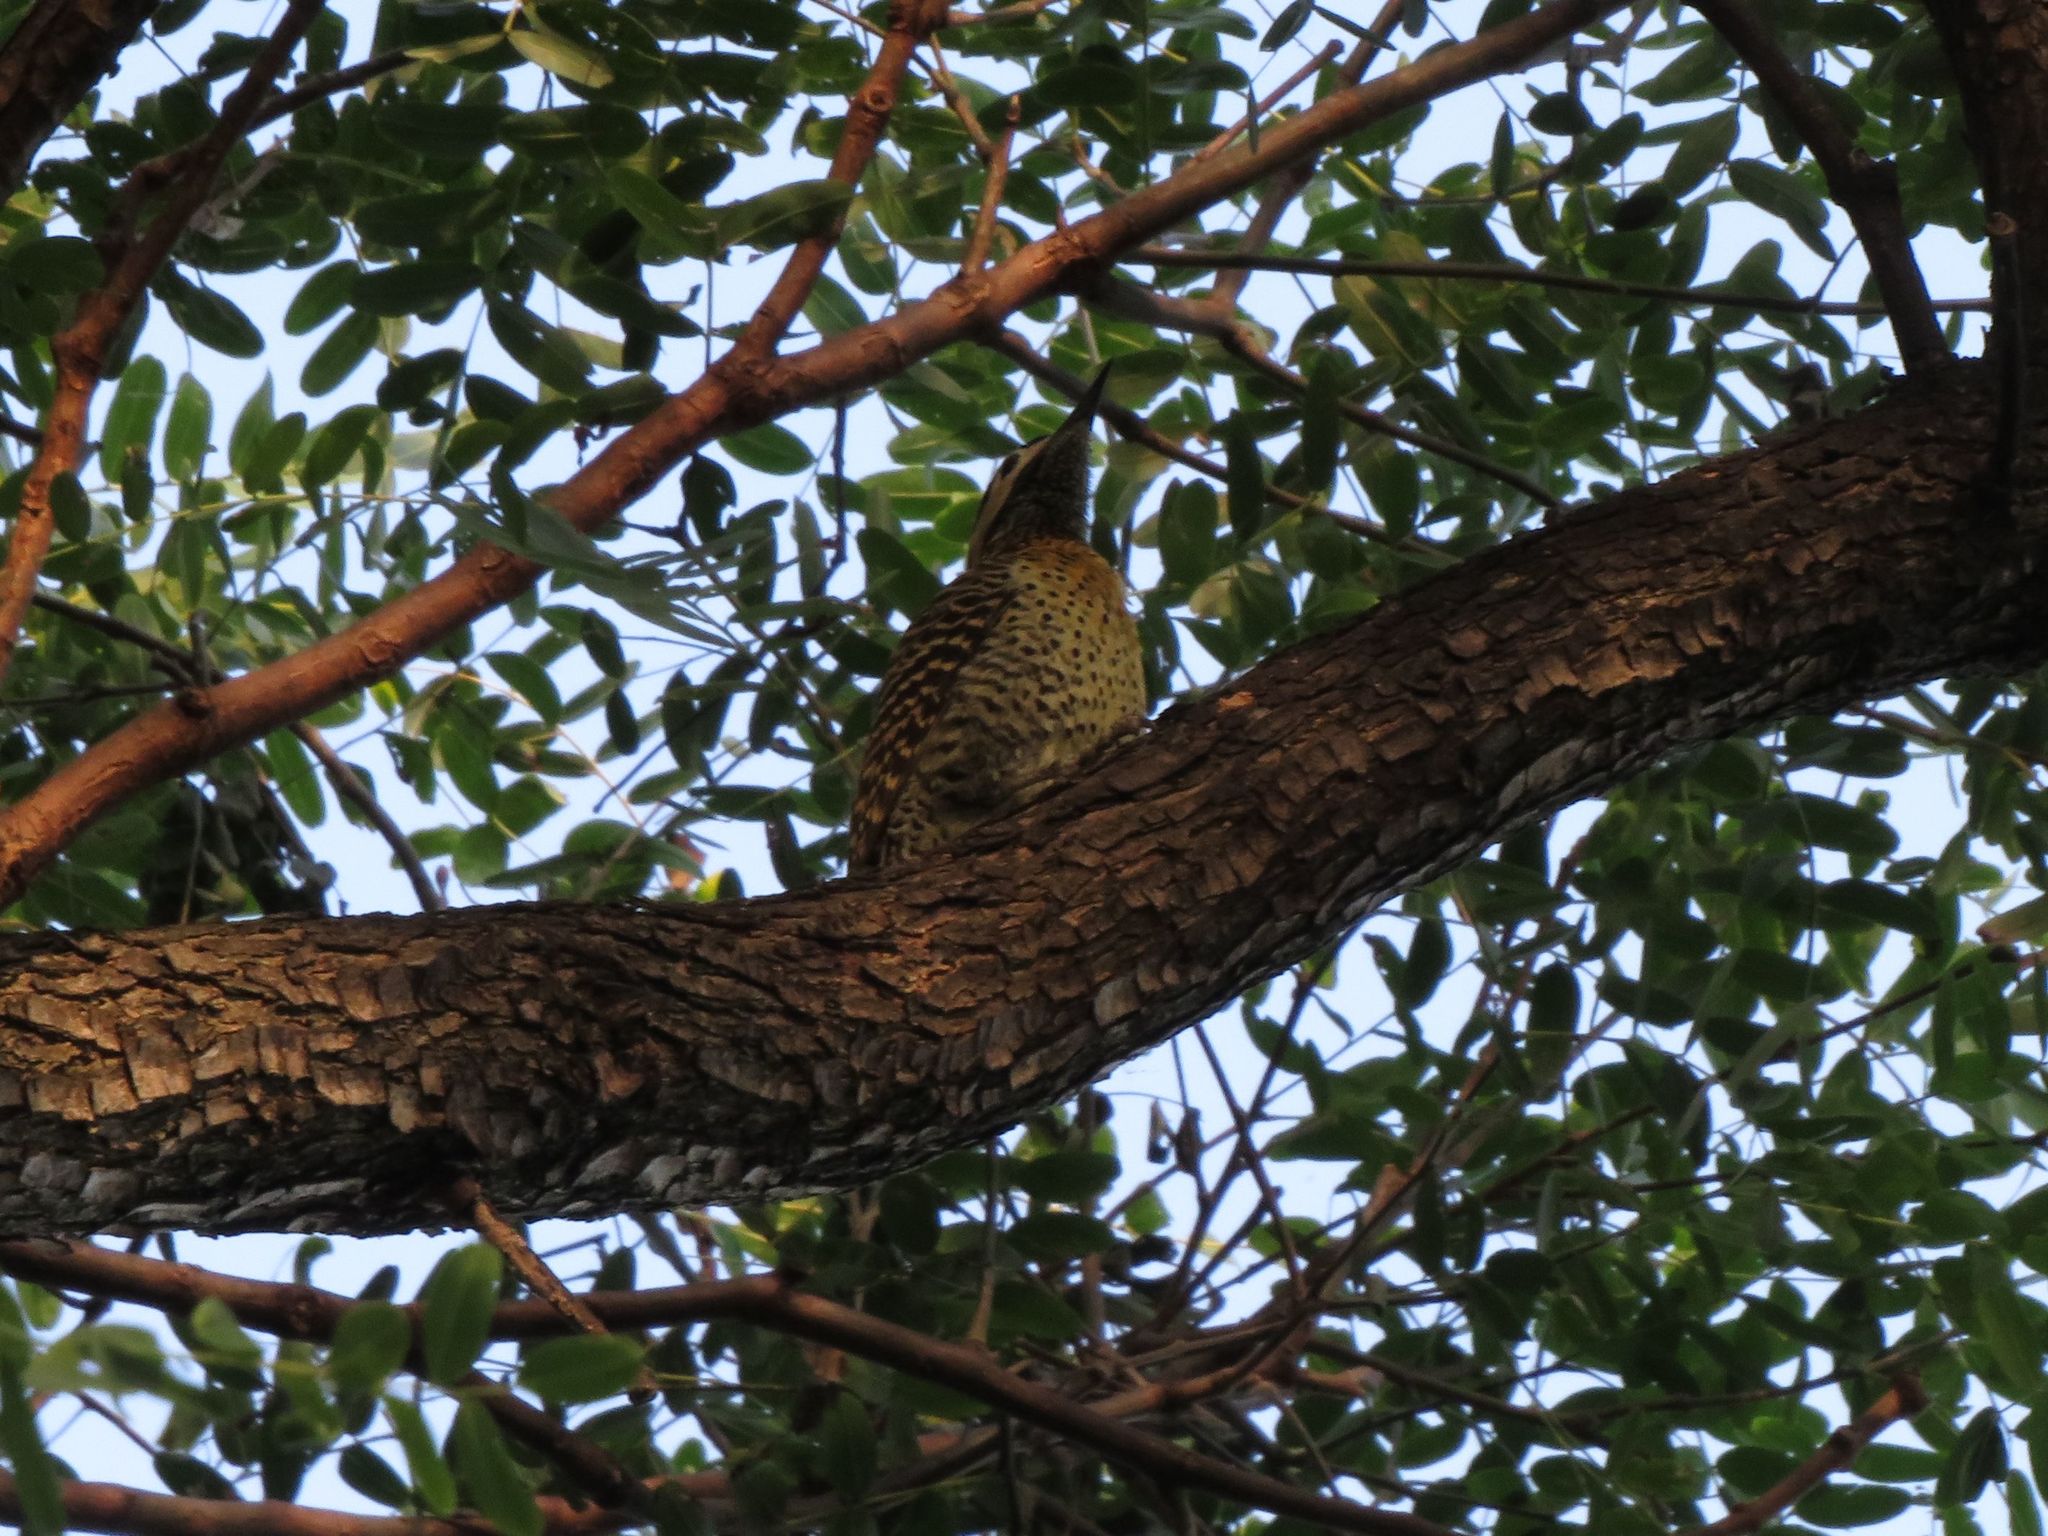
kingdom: Animalia
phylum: Chordata
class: Aves
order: Piciformes
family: Picidae
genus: Colaptes
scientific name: Colaptes melanochloros
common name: Green-barred woodpecker
